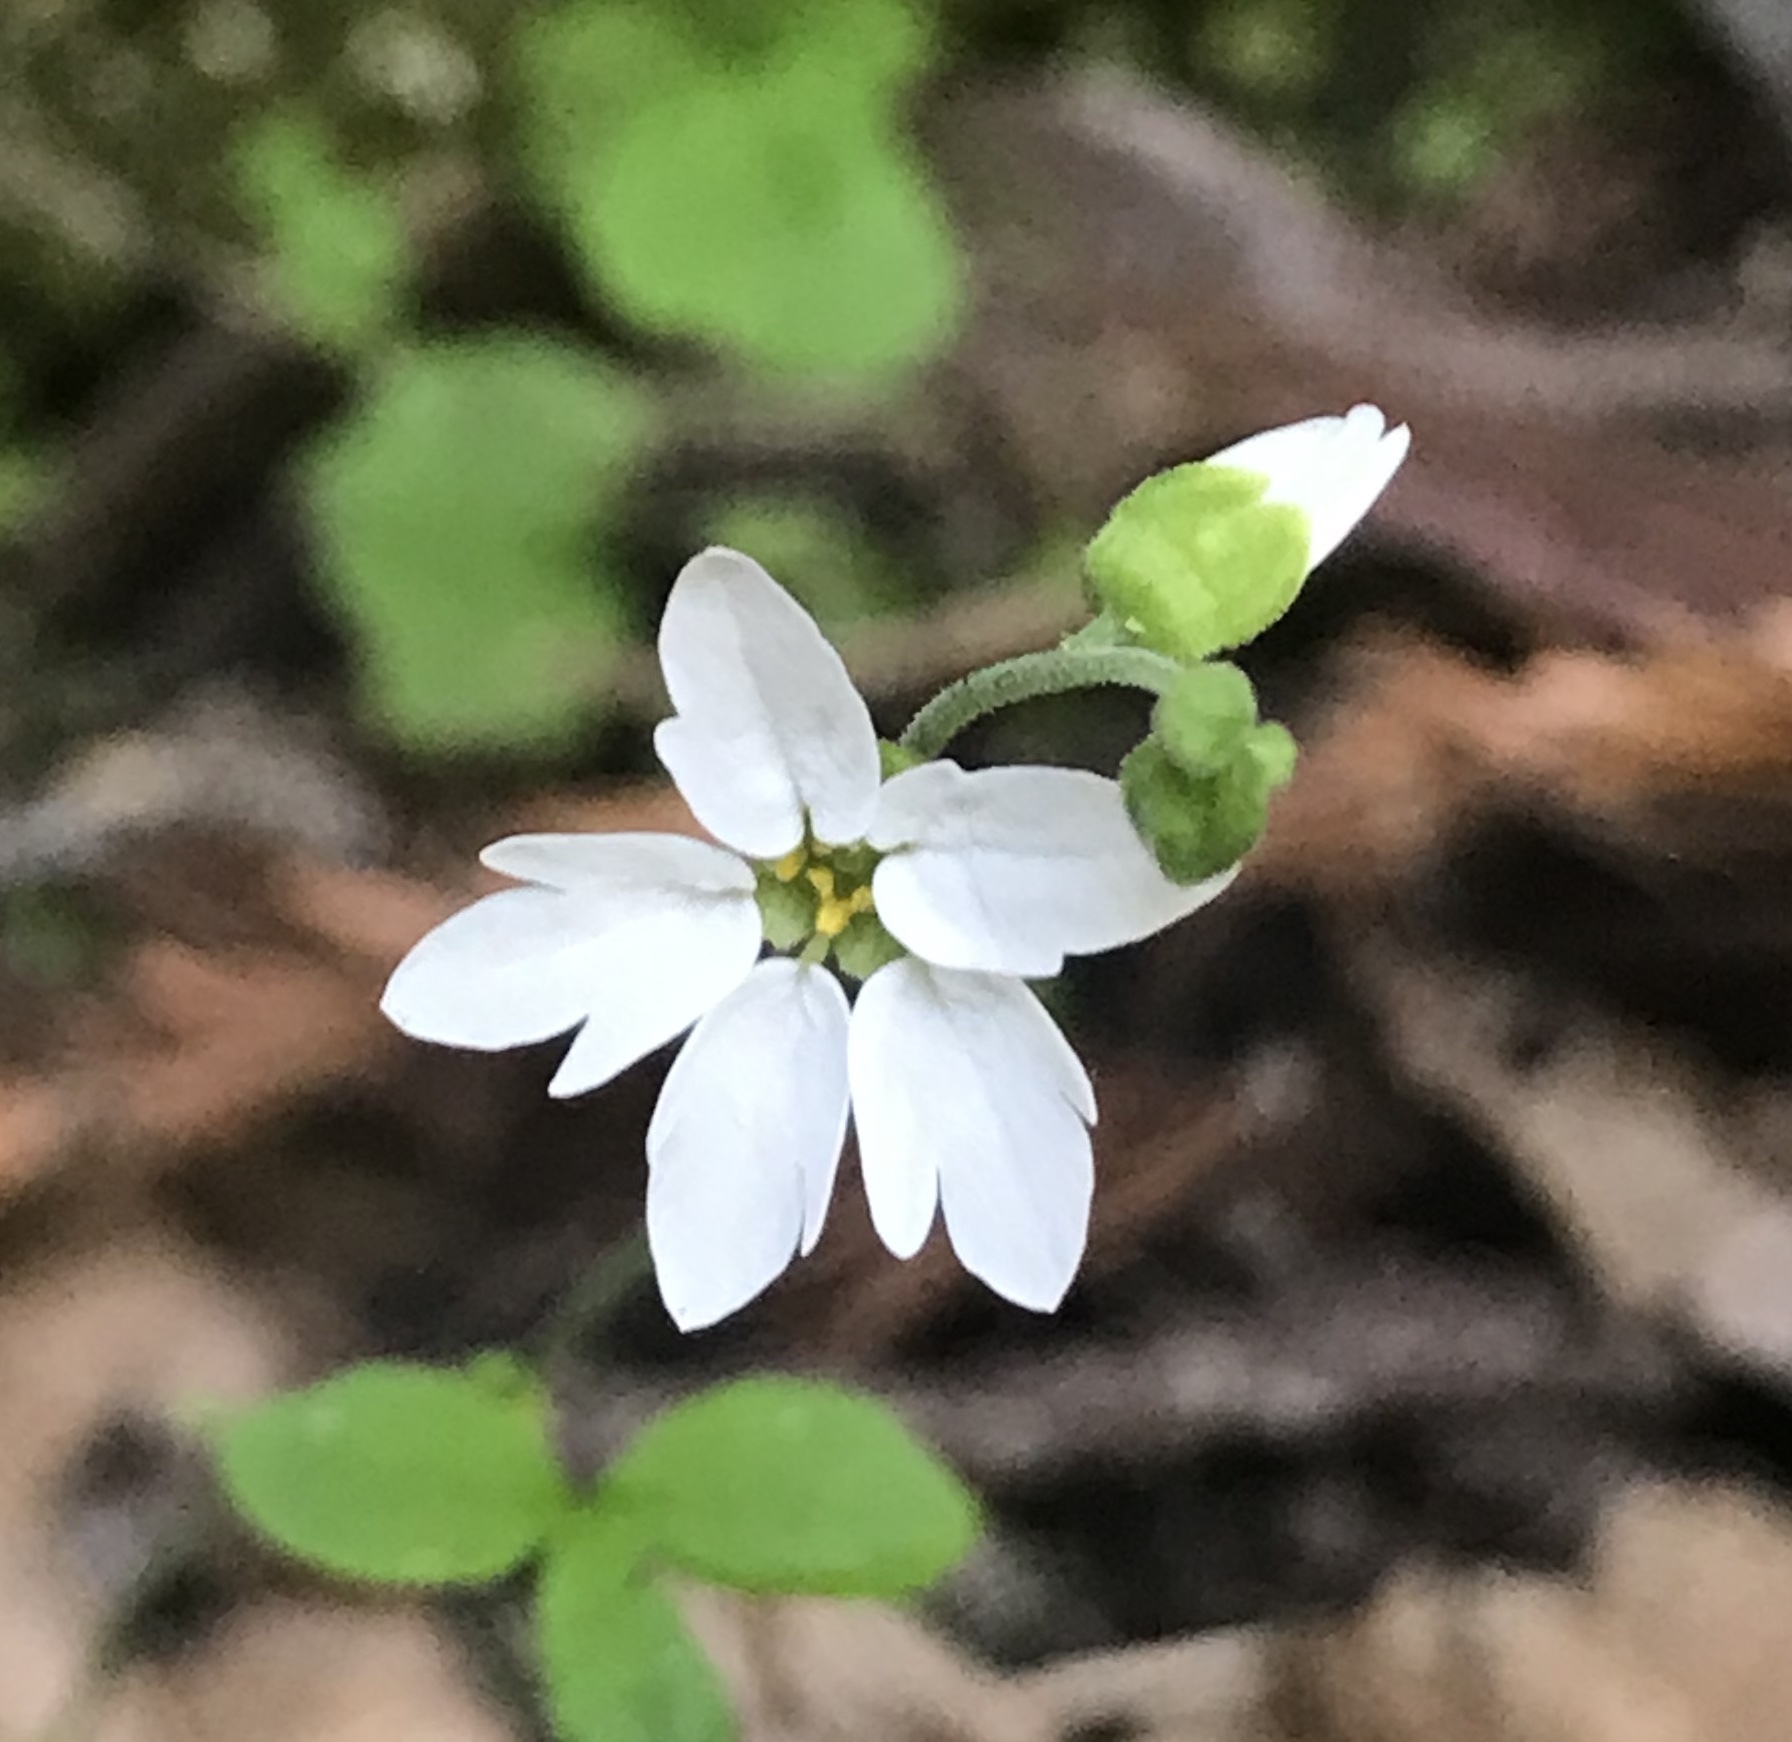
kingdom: Plantae
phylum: Tracheophyta
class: Magnoliopsida
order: Saxifragales
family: Saxifragaceae
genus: Lithophragma
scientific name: Lithophragma heterophyllum
